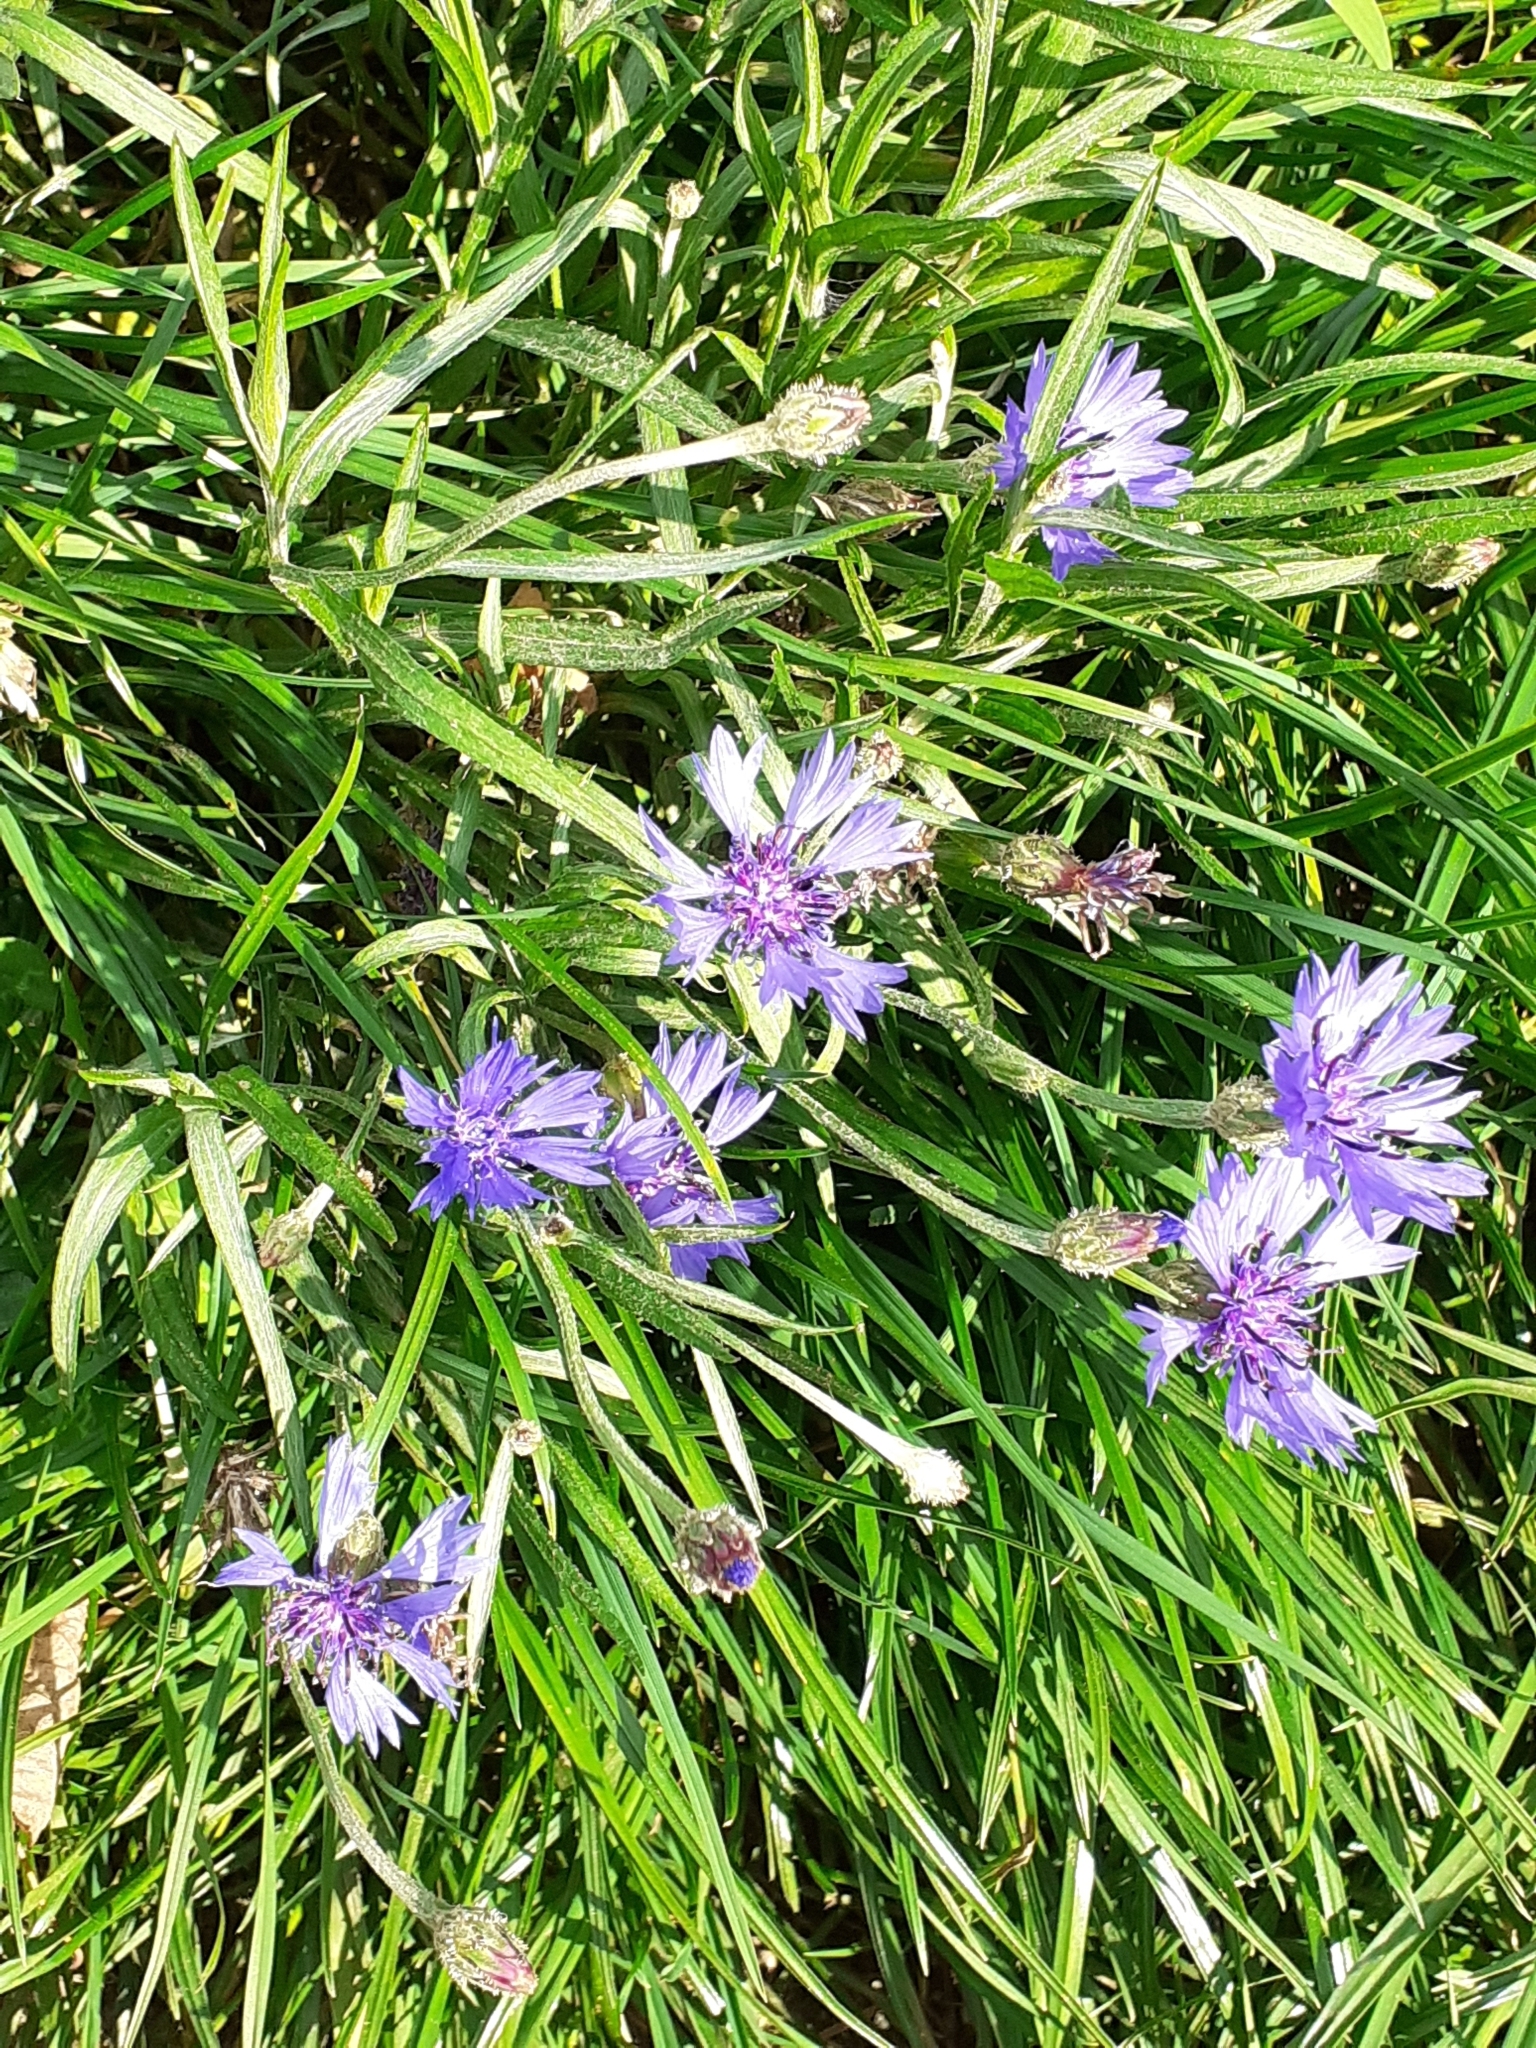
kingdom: Plantae
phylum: Tracheophyta
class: Magnoliopsida
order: Asterales
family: Asteraceae
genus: Centaurea
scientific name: Centaurea cyanus
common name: Cornflower
